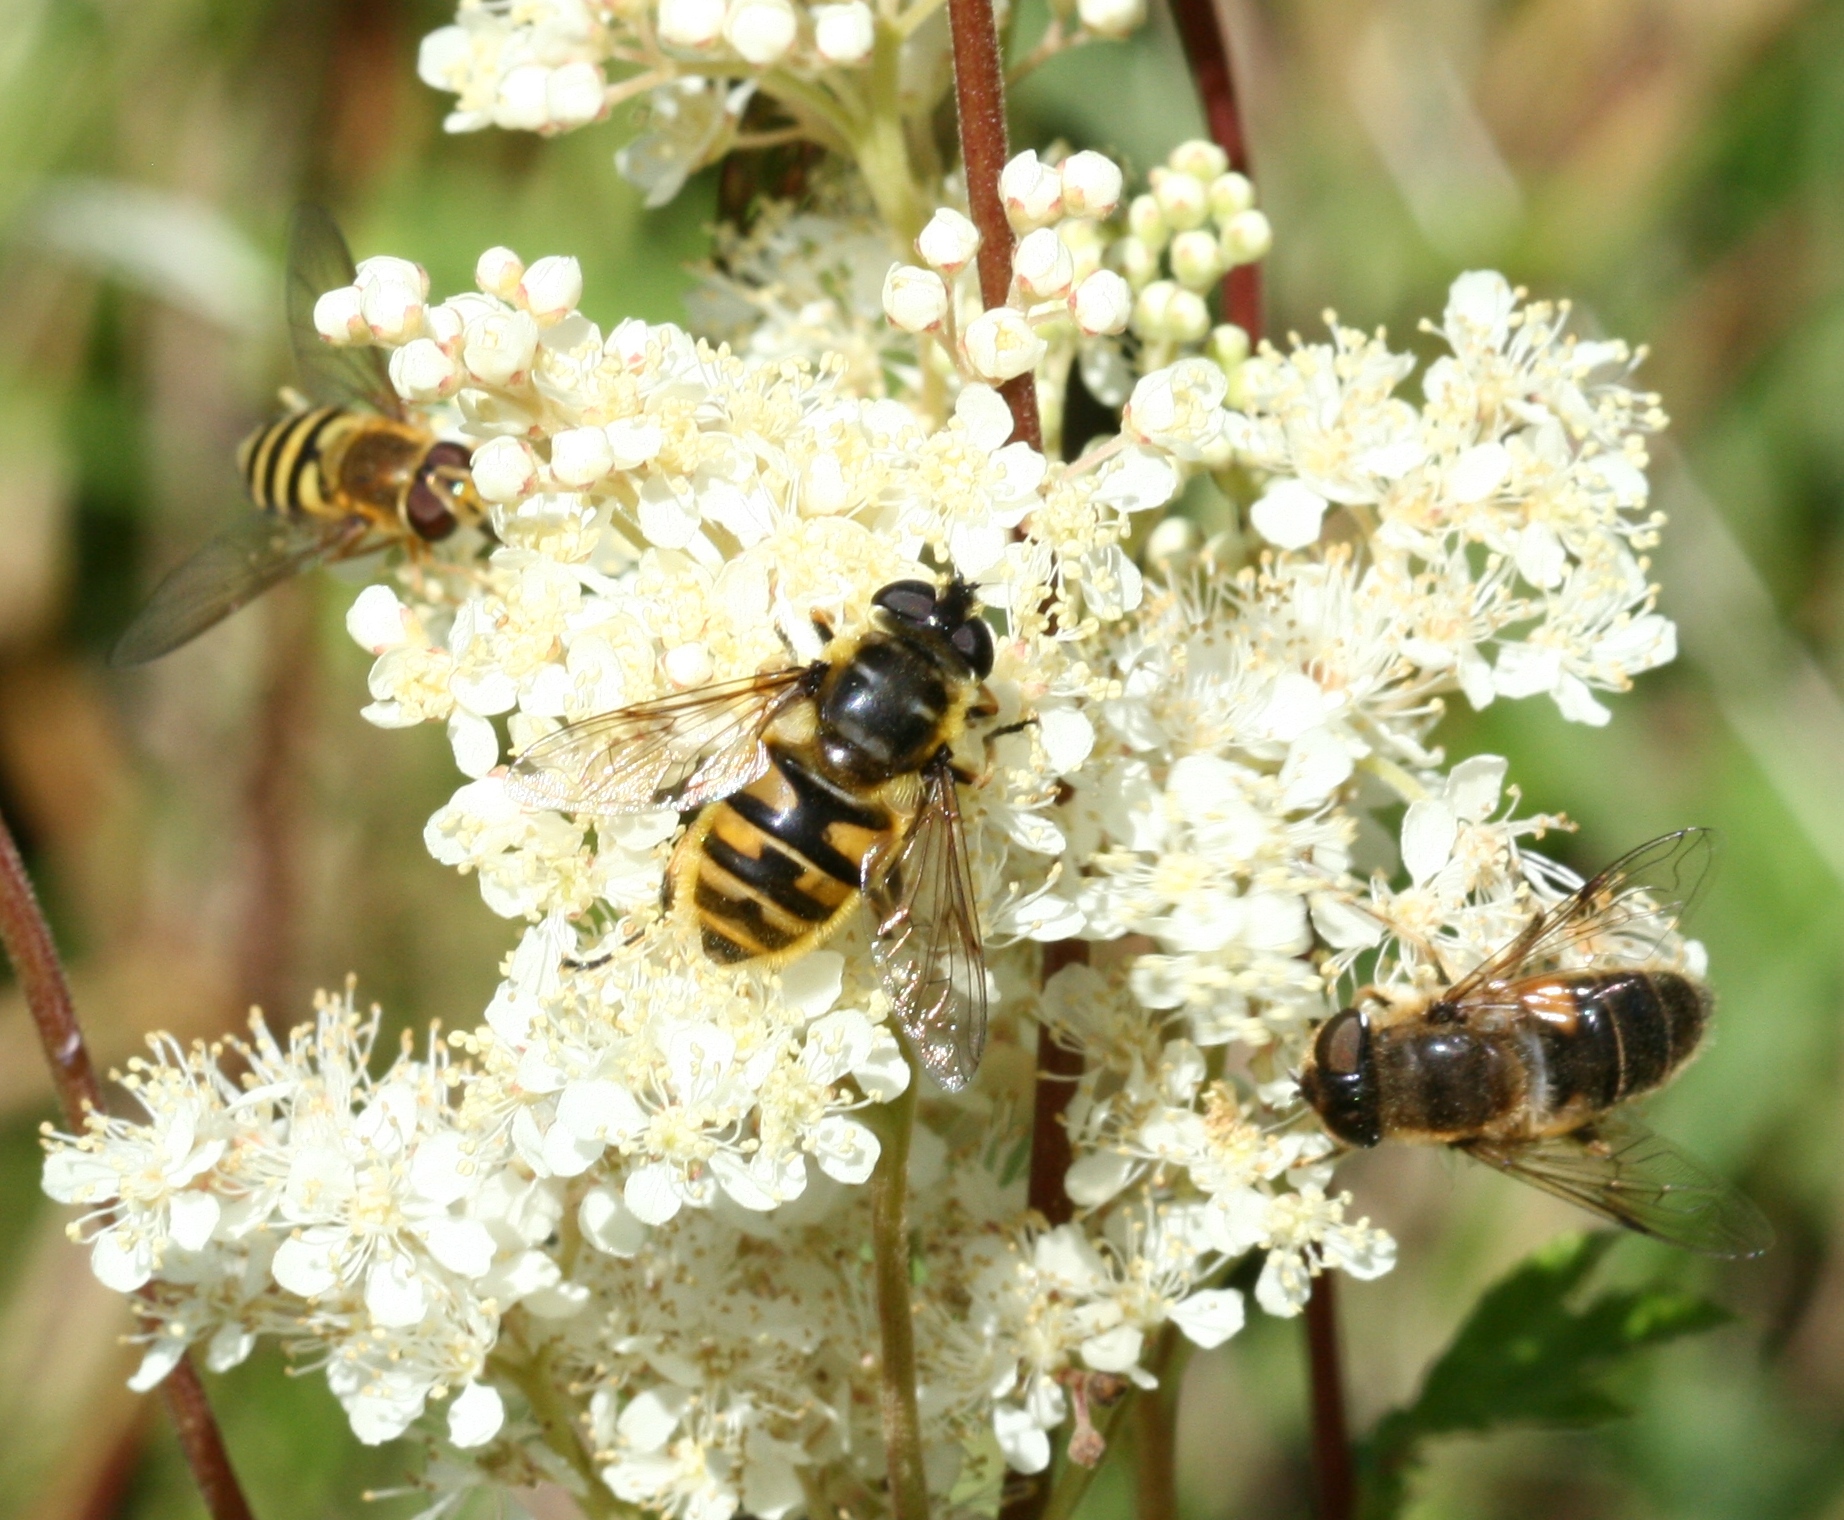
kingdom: Animalia
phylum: Arthropoda
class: Insecta
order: Diptera
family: Syrphidae
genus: Myathropa
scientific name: Myathropa florea
